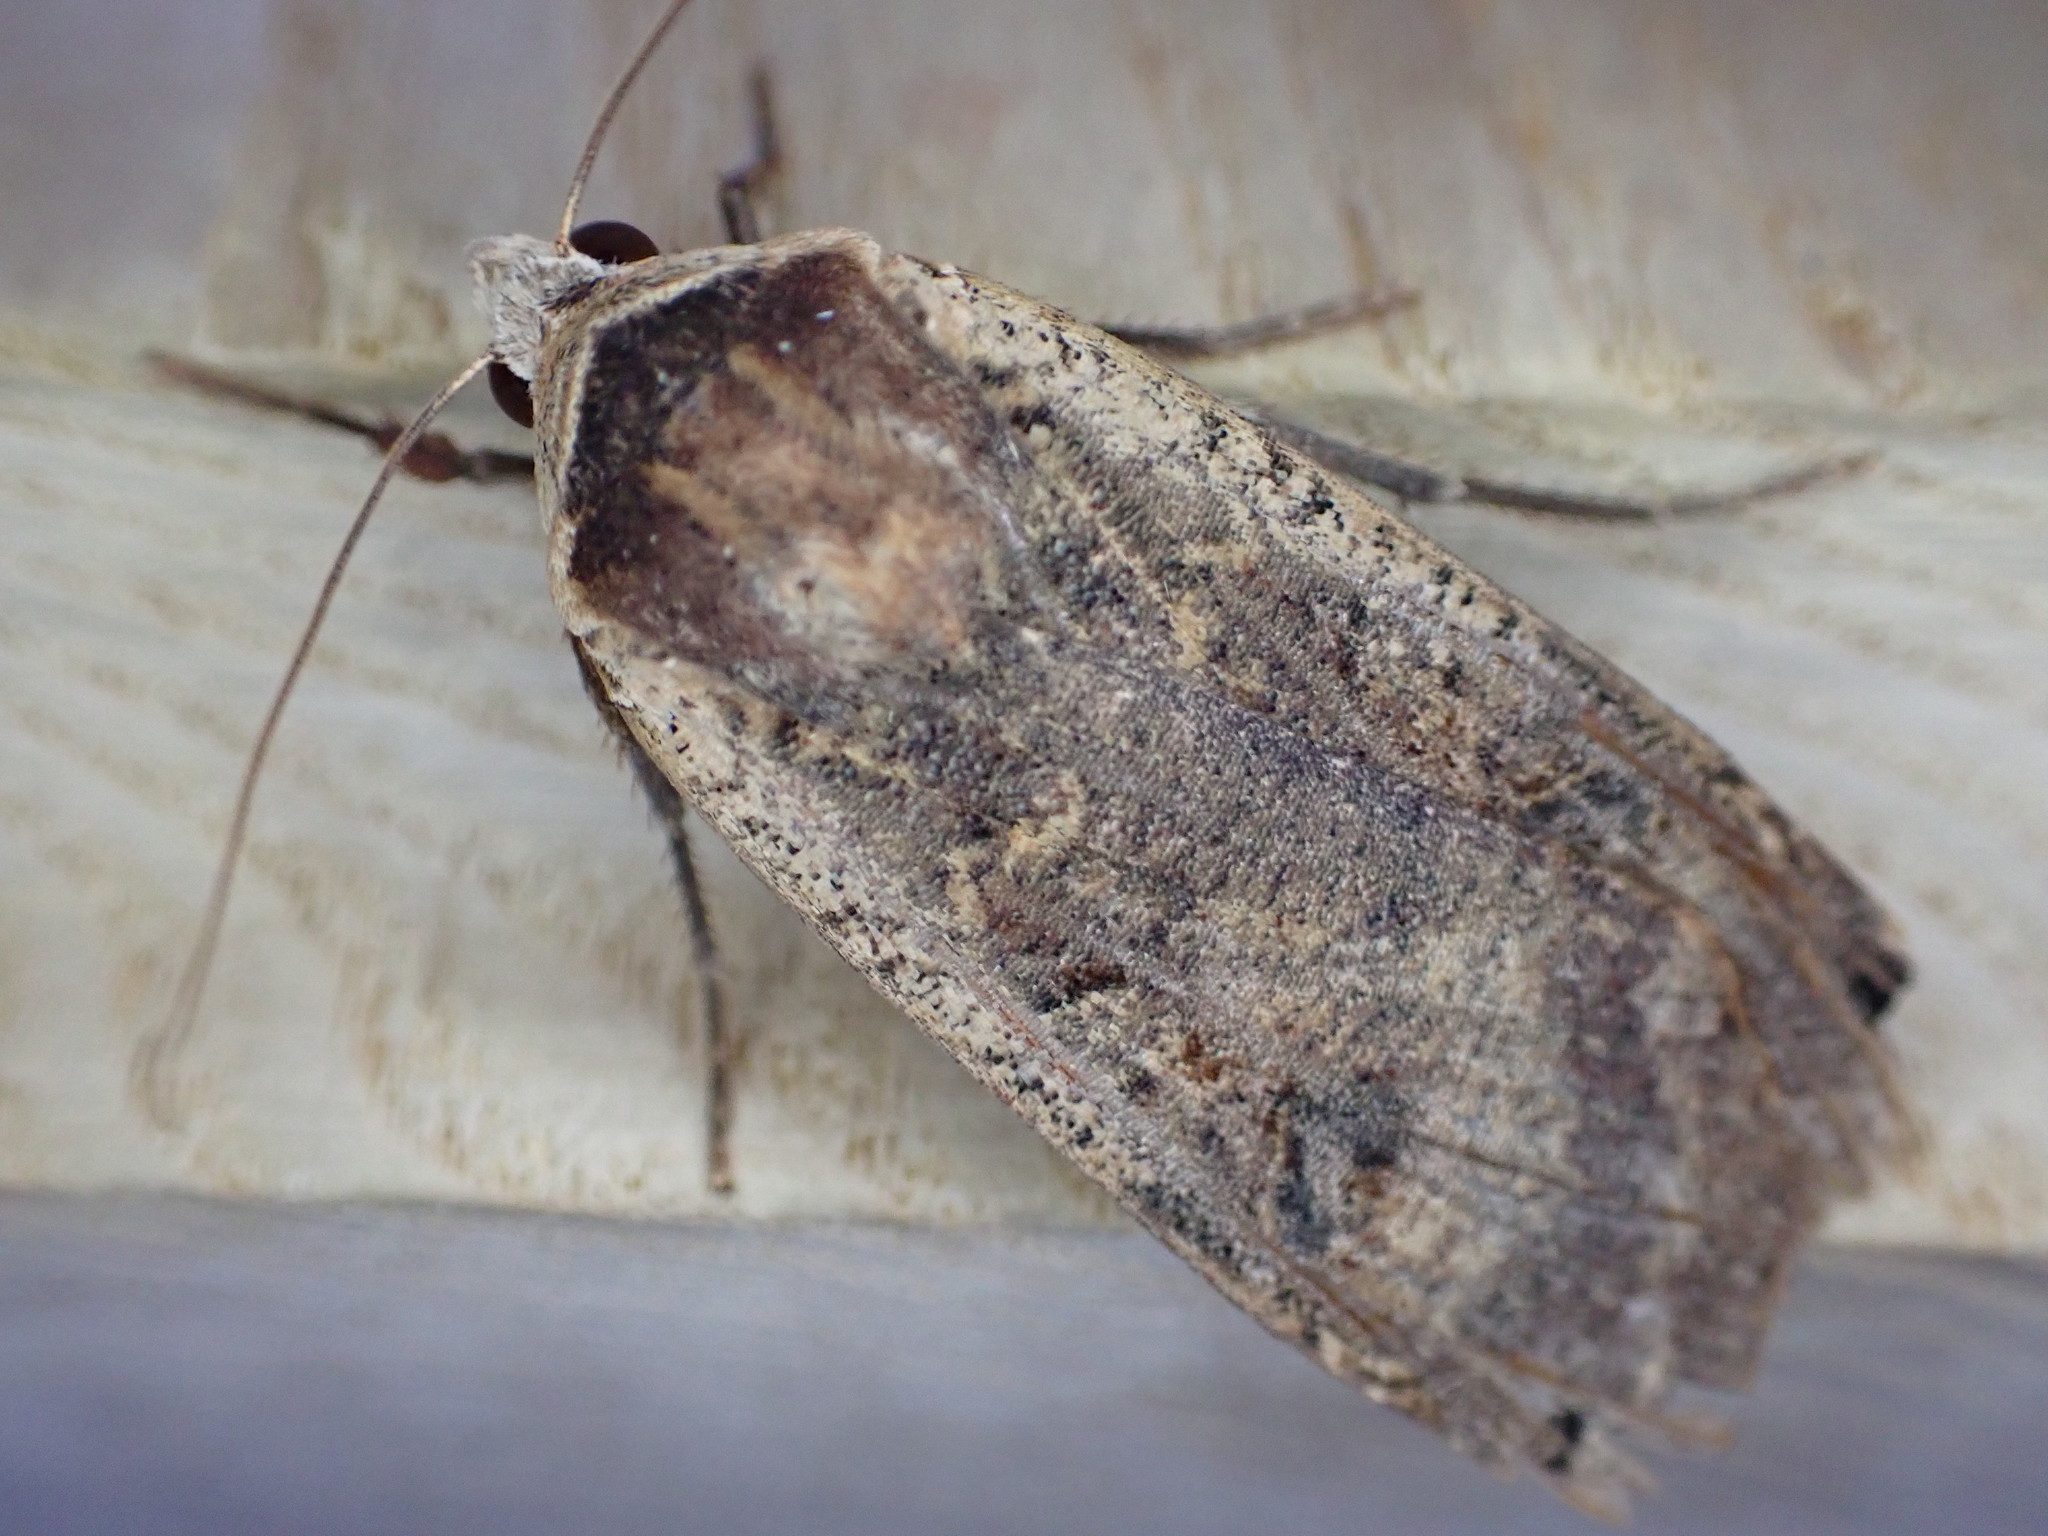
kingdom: Animalia
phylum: Arthropoda
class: Insecta
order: Lepidoptera
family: Noctuidae
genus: Noctua
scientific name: Noctua pronuba
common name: Large yellow underwing
